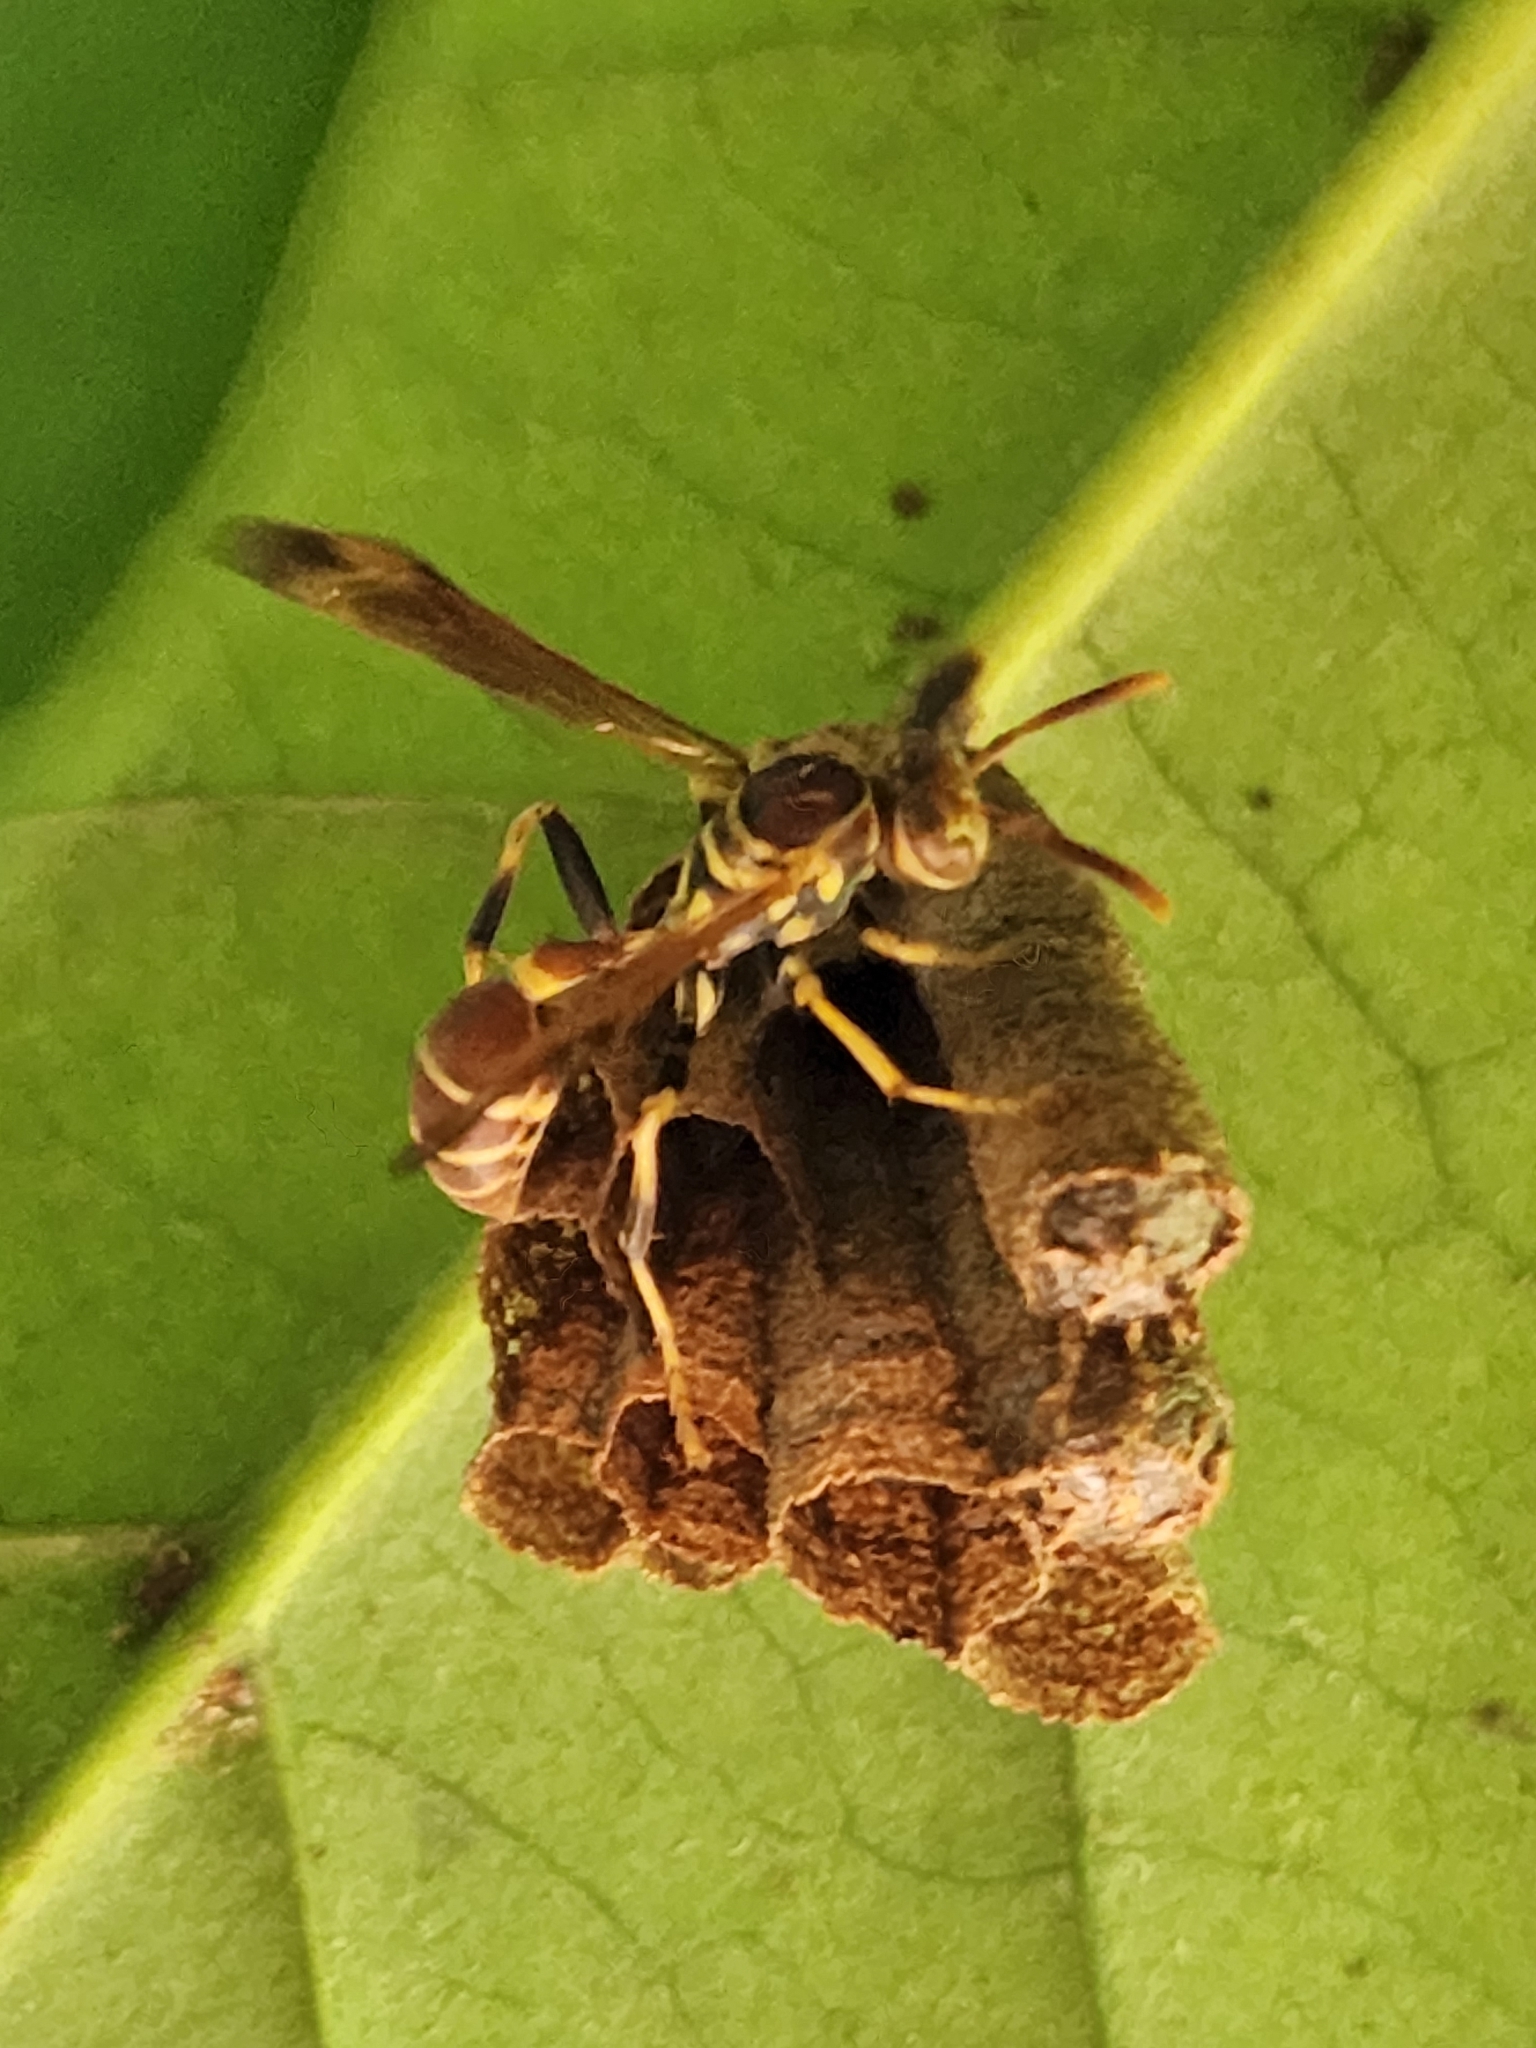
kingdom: Animalia
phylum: Arthropoda
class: Insecta
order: Hymenoptera
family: Vespidae
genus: Mischocyttarus
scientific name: Mischocyttarus mexicanus
